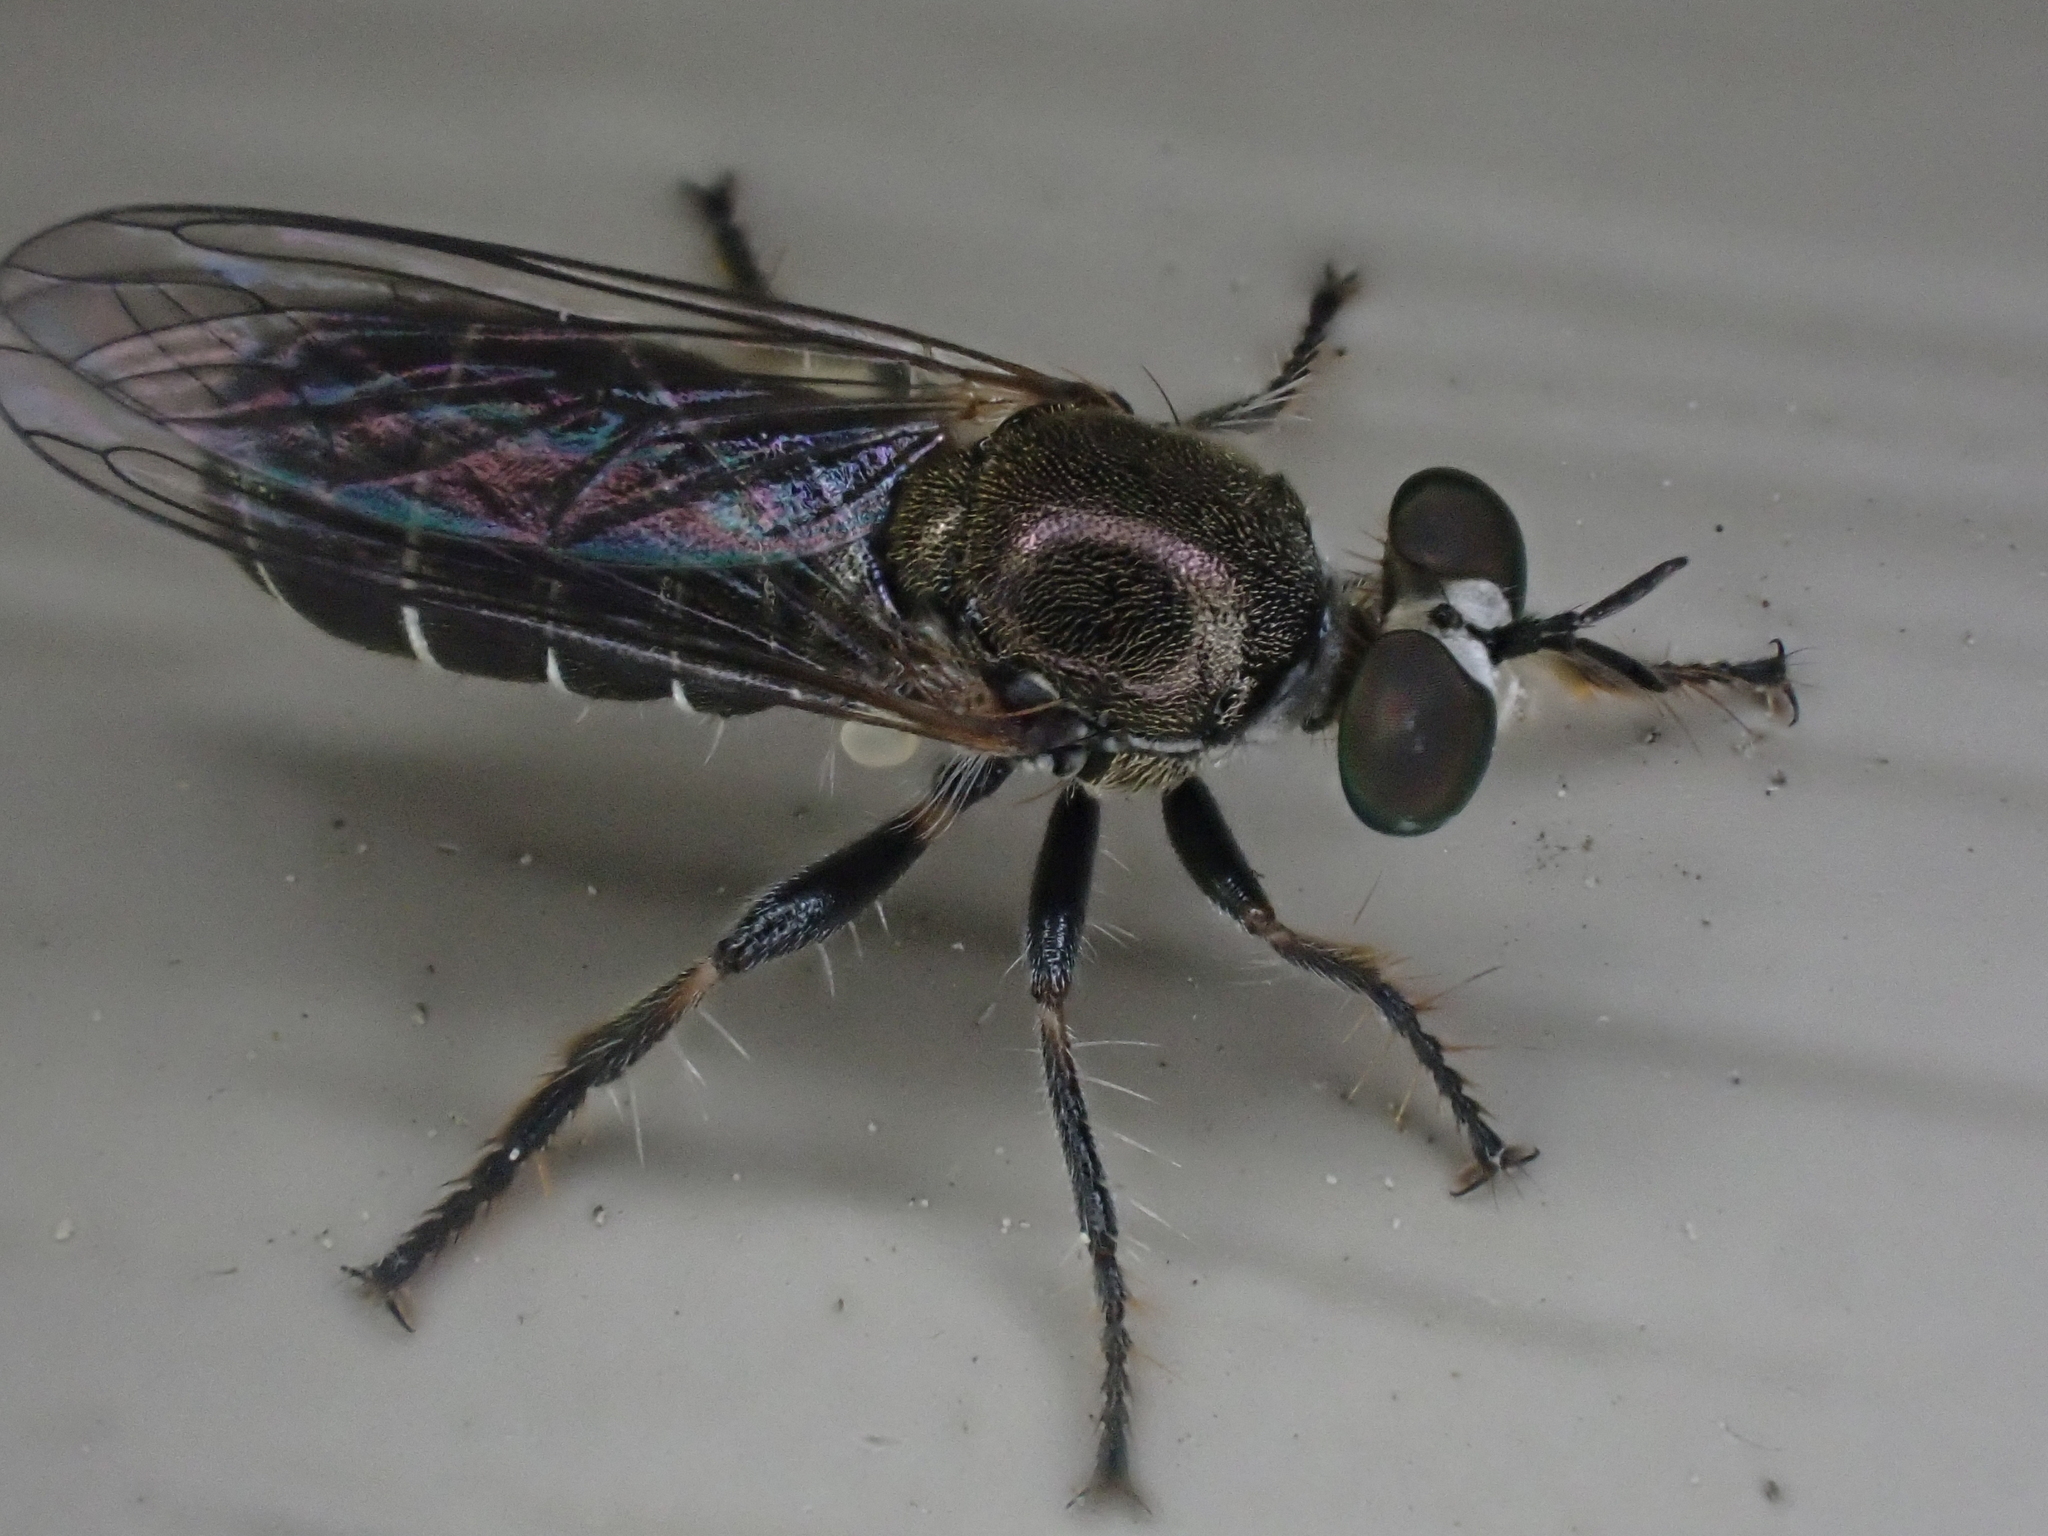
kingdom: Animalia
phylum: Arthropoda
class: Insecta
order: Diptera
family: Asilidae
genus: Atomosia
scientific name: Atomosia puella
